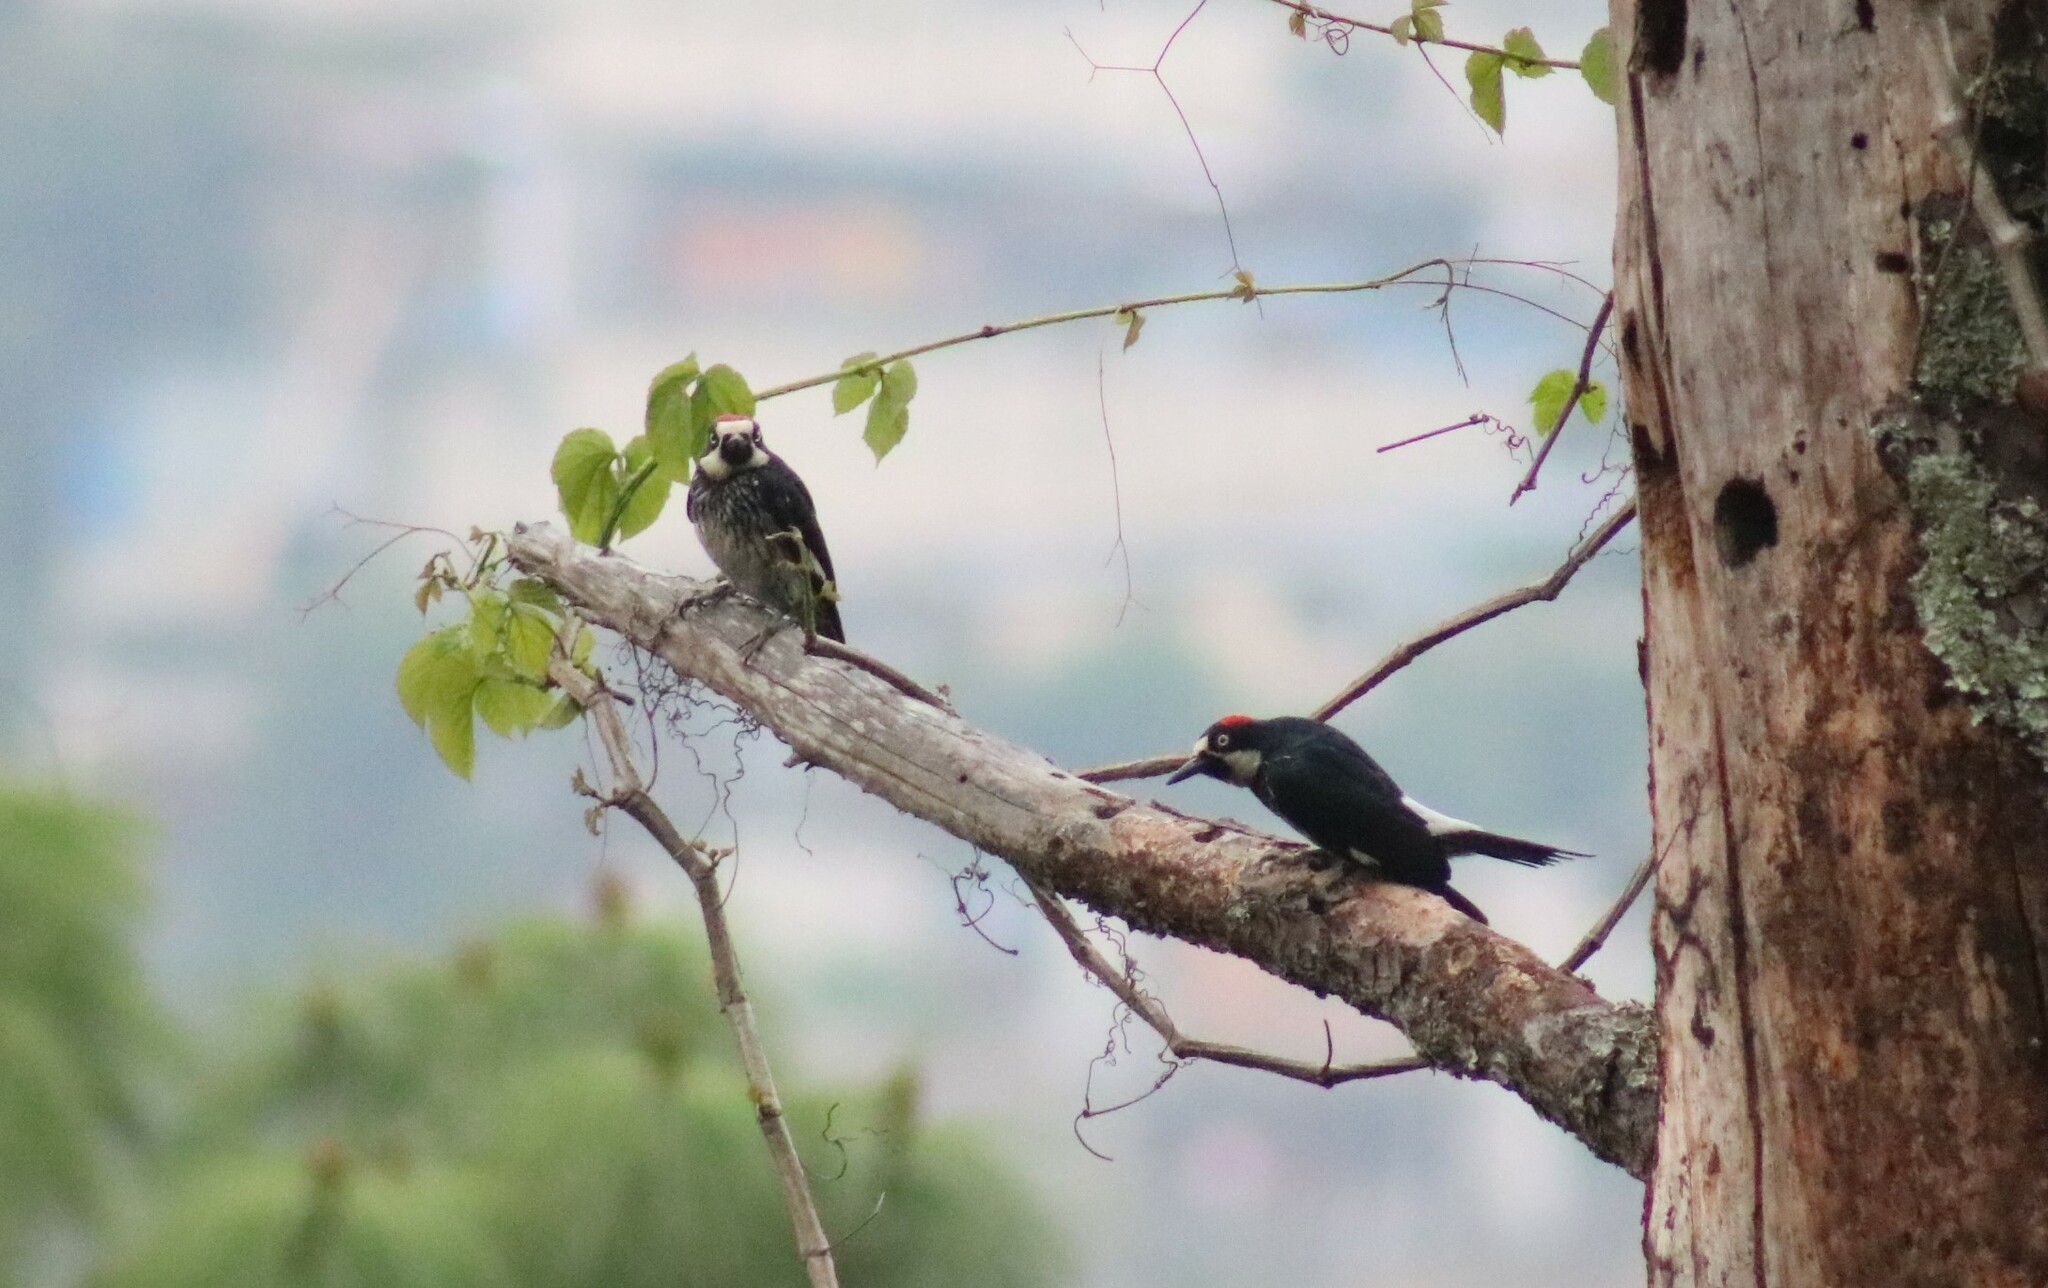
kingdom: Animalia
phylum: Chordata
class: Aves
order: Piciformes
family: Picidae
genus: Melanerpes
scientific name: Melanerpes formicivorus
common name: Acorn woodpecker
